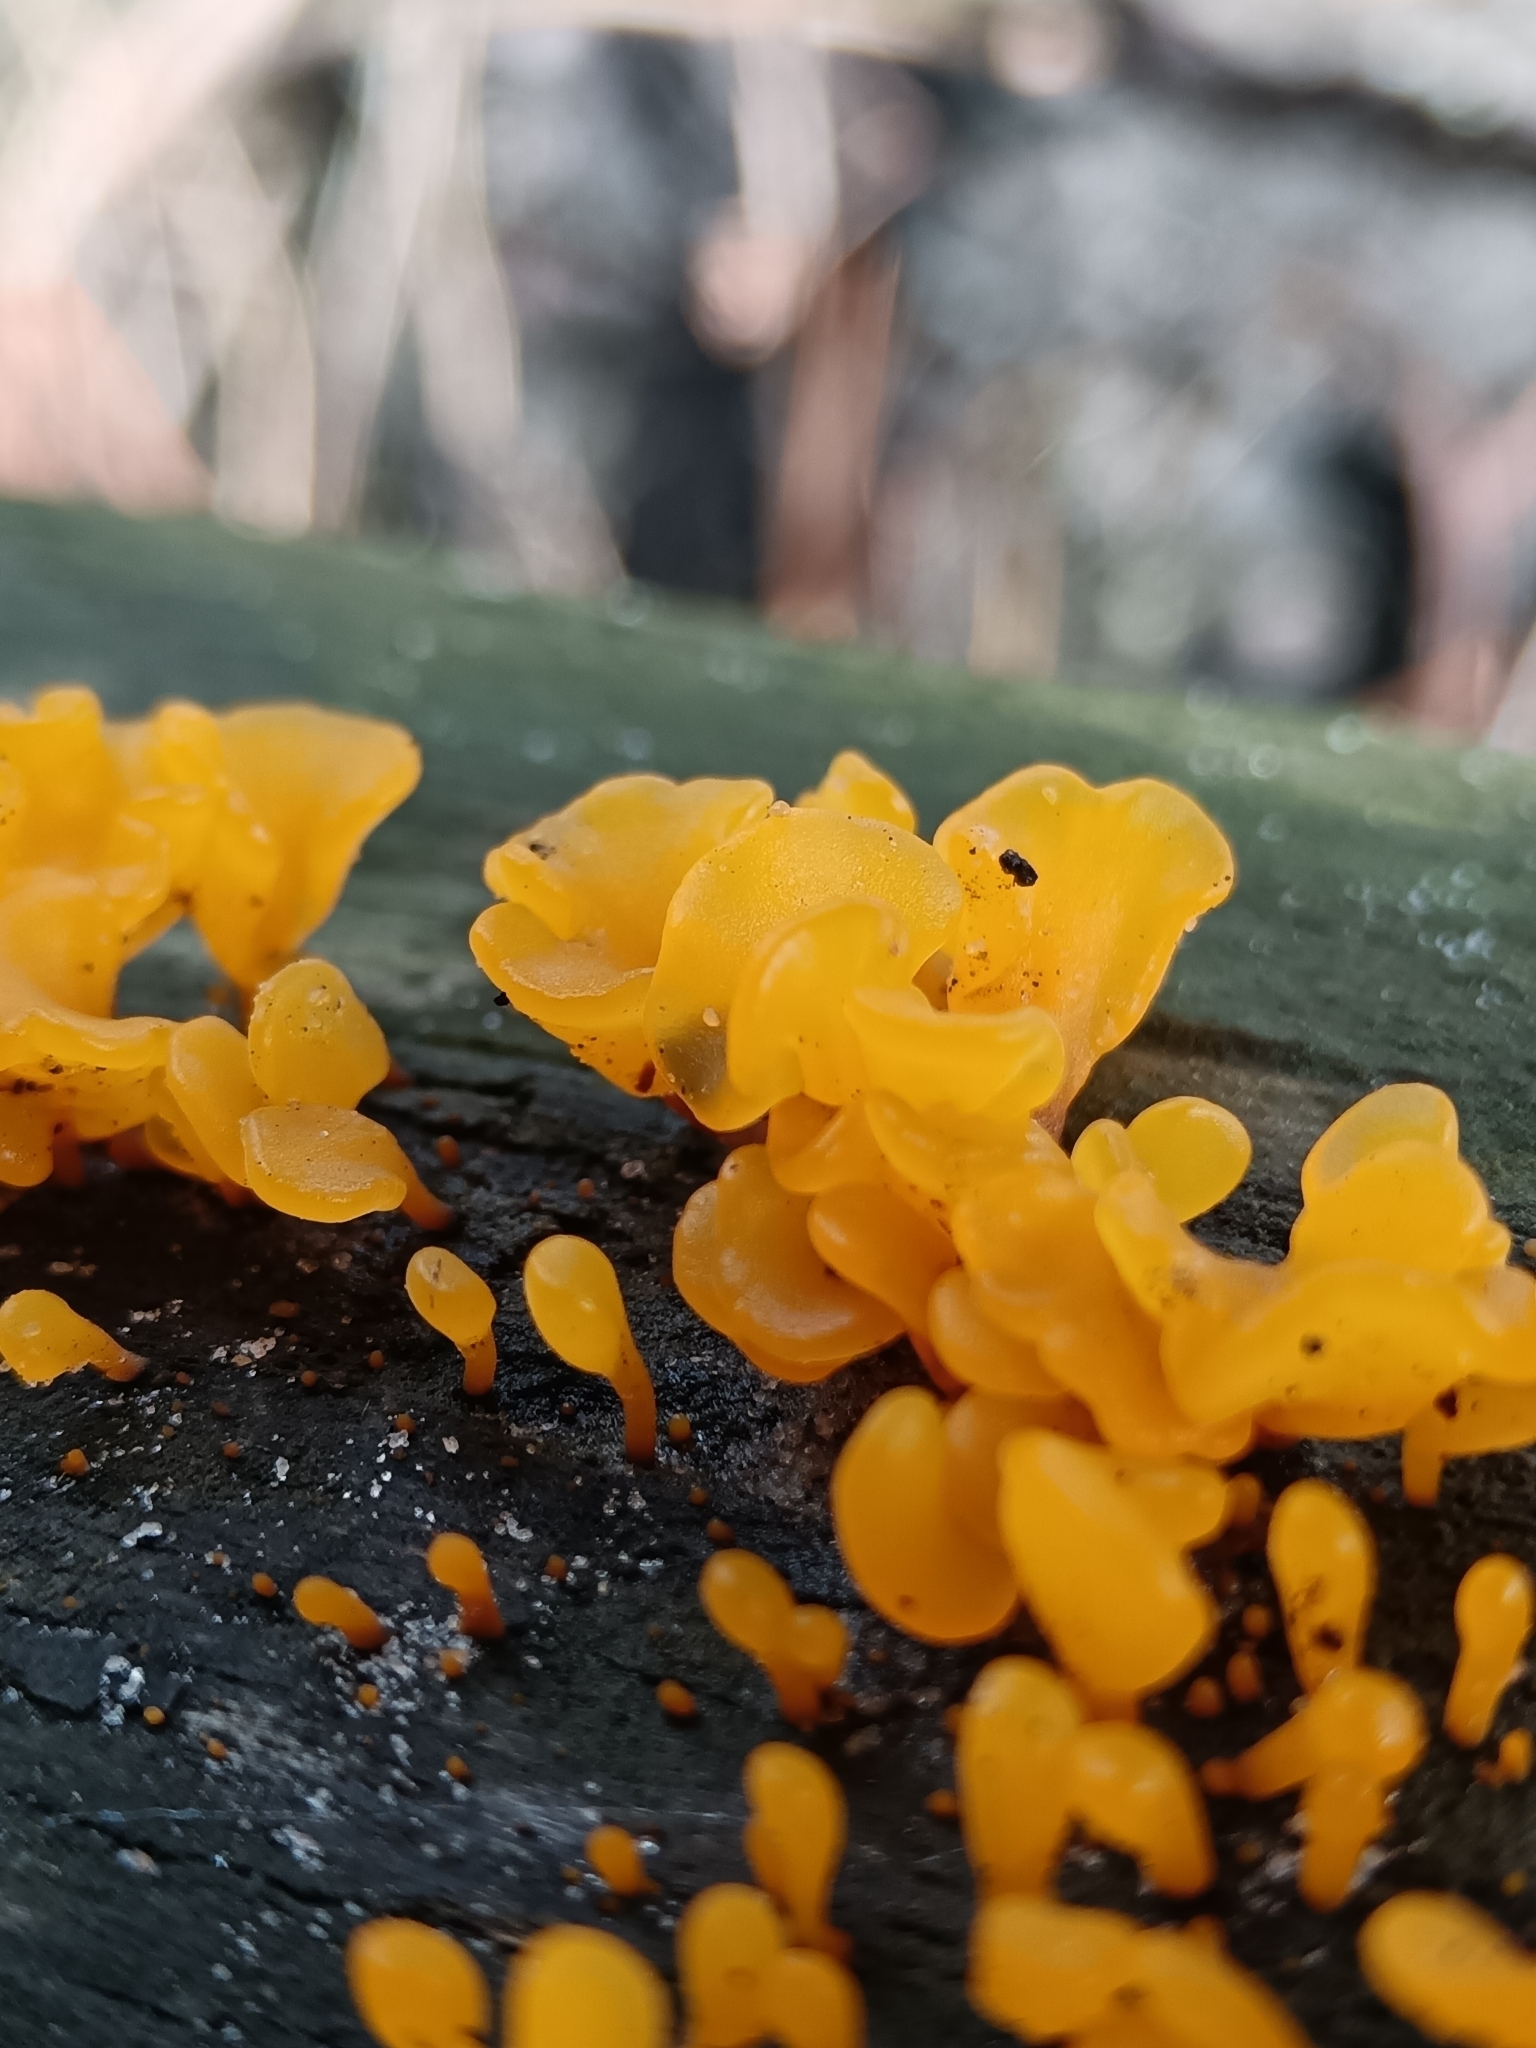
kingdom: Fungi
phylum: Basidiomycota
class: Dacrymycetes
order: Dacrymycetales
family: Dacrymycetaceae
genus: Dacrymyces
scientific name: Dacrymyces spathularius
